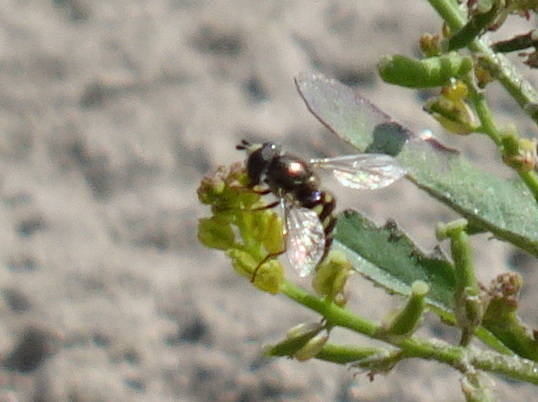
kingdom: Animalia
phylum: Arthropoda
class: Insecta
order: Diptera
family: Syrphidae
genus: Eupeodes
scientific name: Eupeodes volucris
